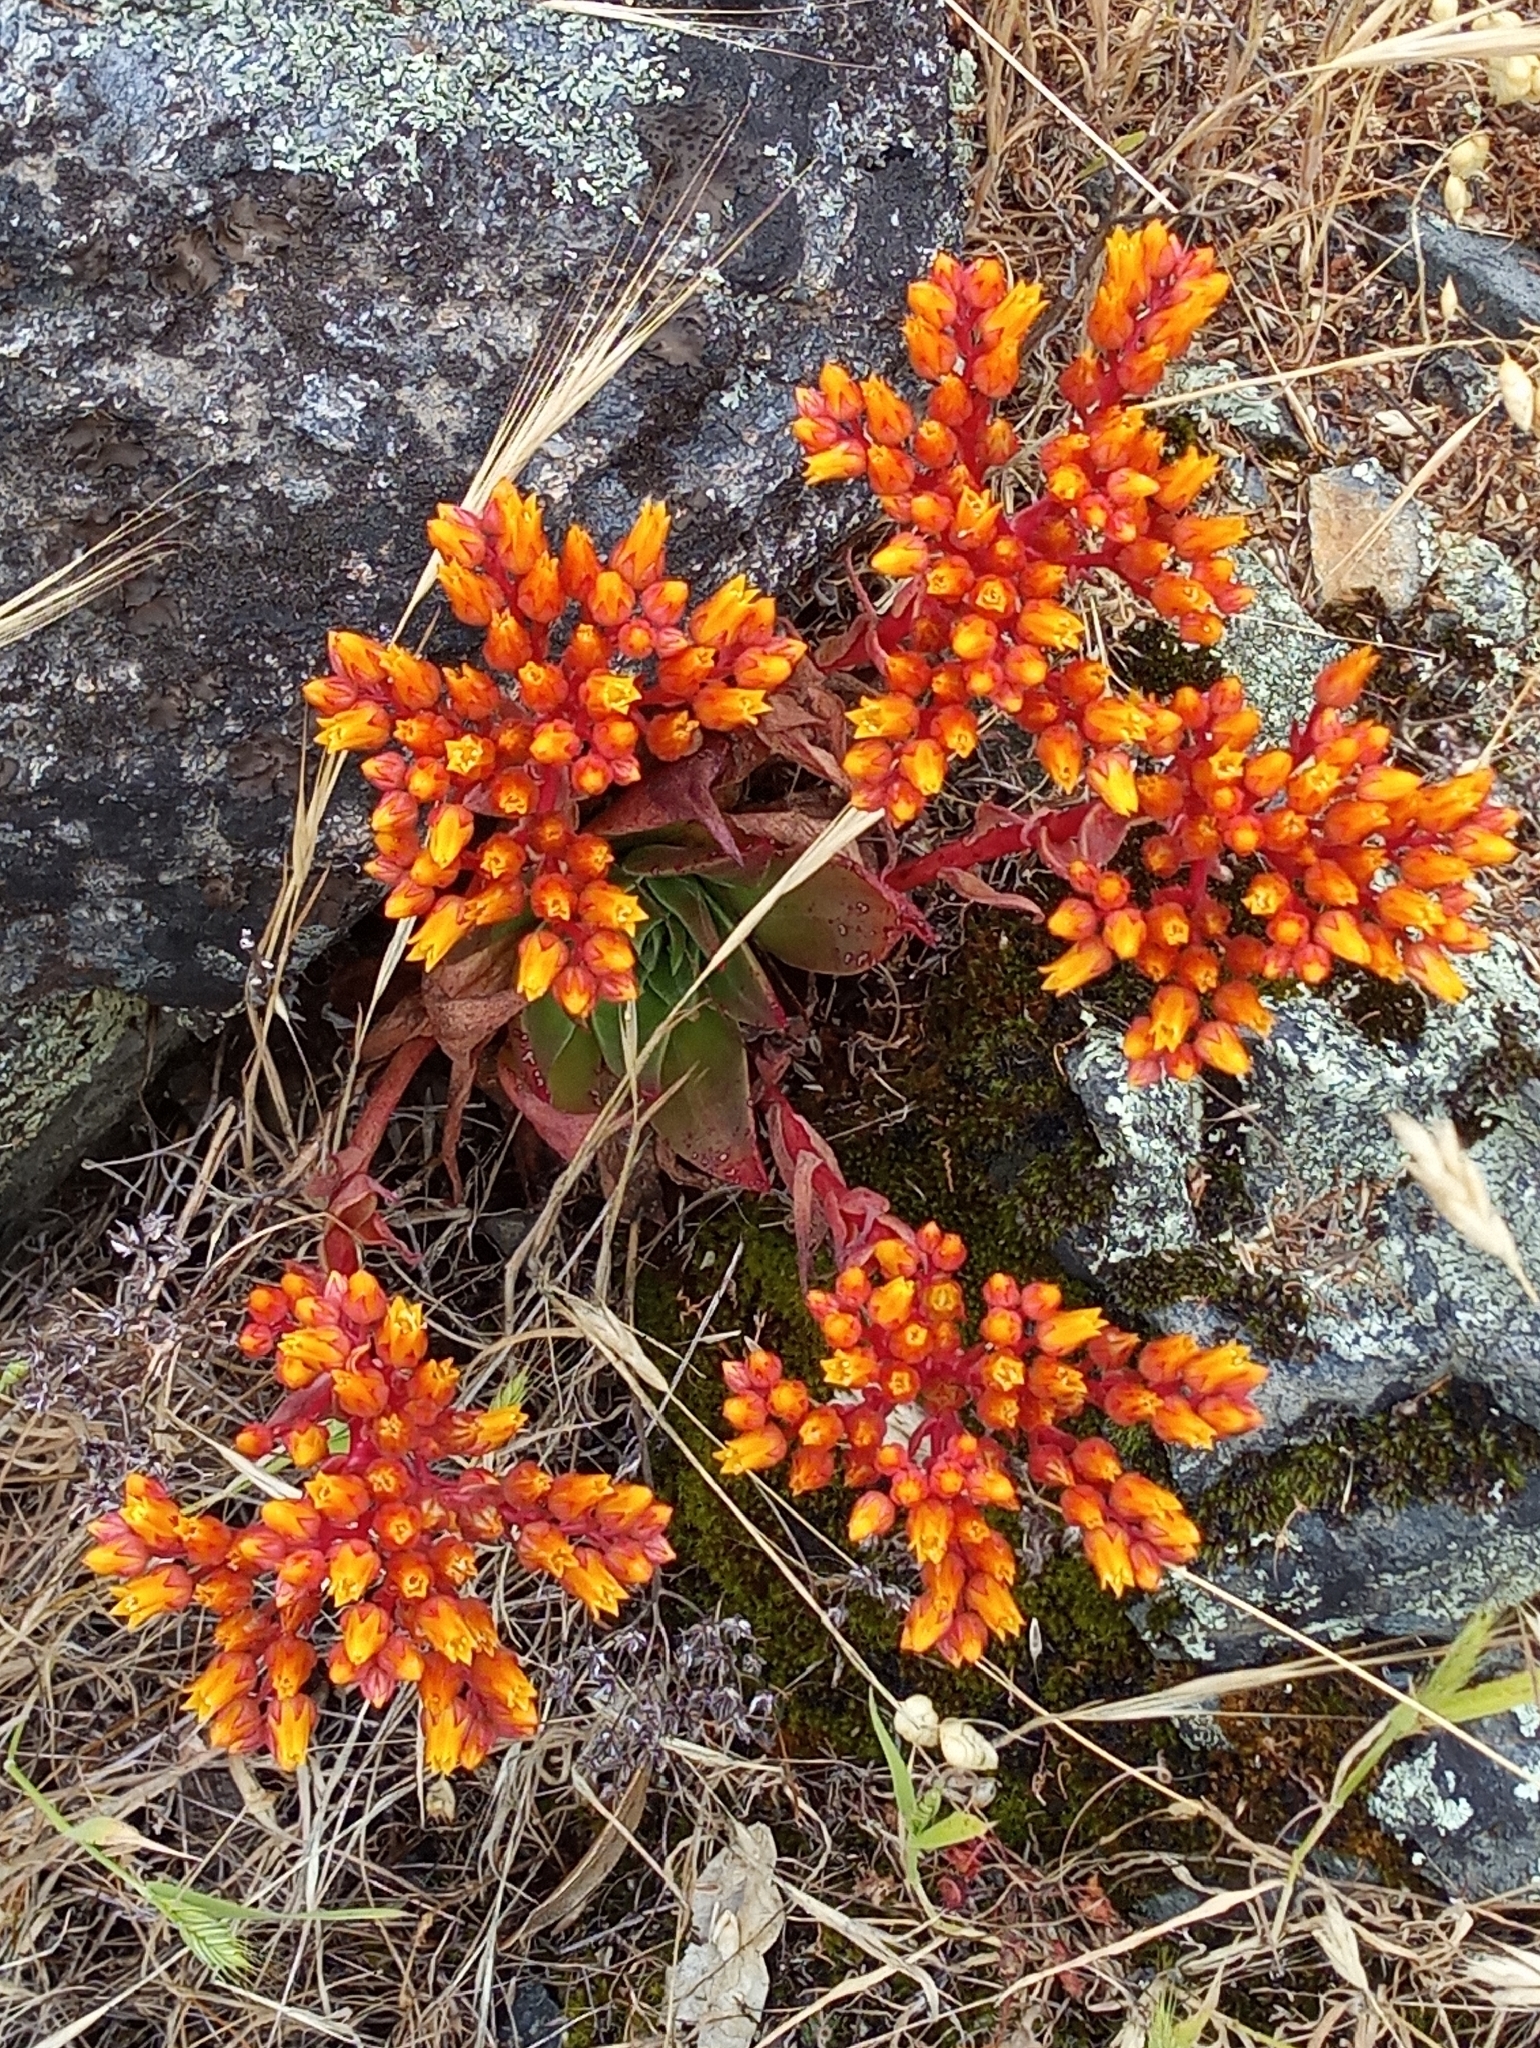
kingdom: Plantae
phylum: Tracheophyta
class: Magnoliopsida
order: Saxifragales
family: Crassulaceae
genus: Dudleya
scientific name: Dudleya cymosa
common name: Canyon dudleya
